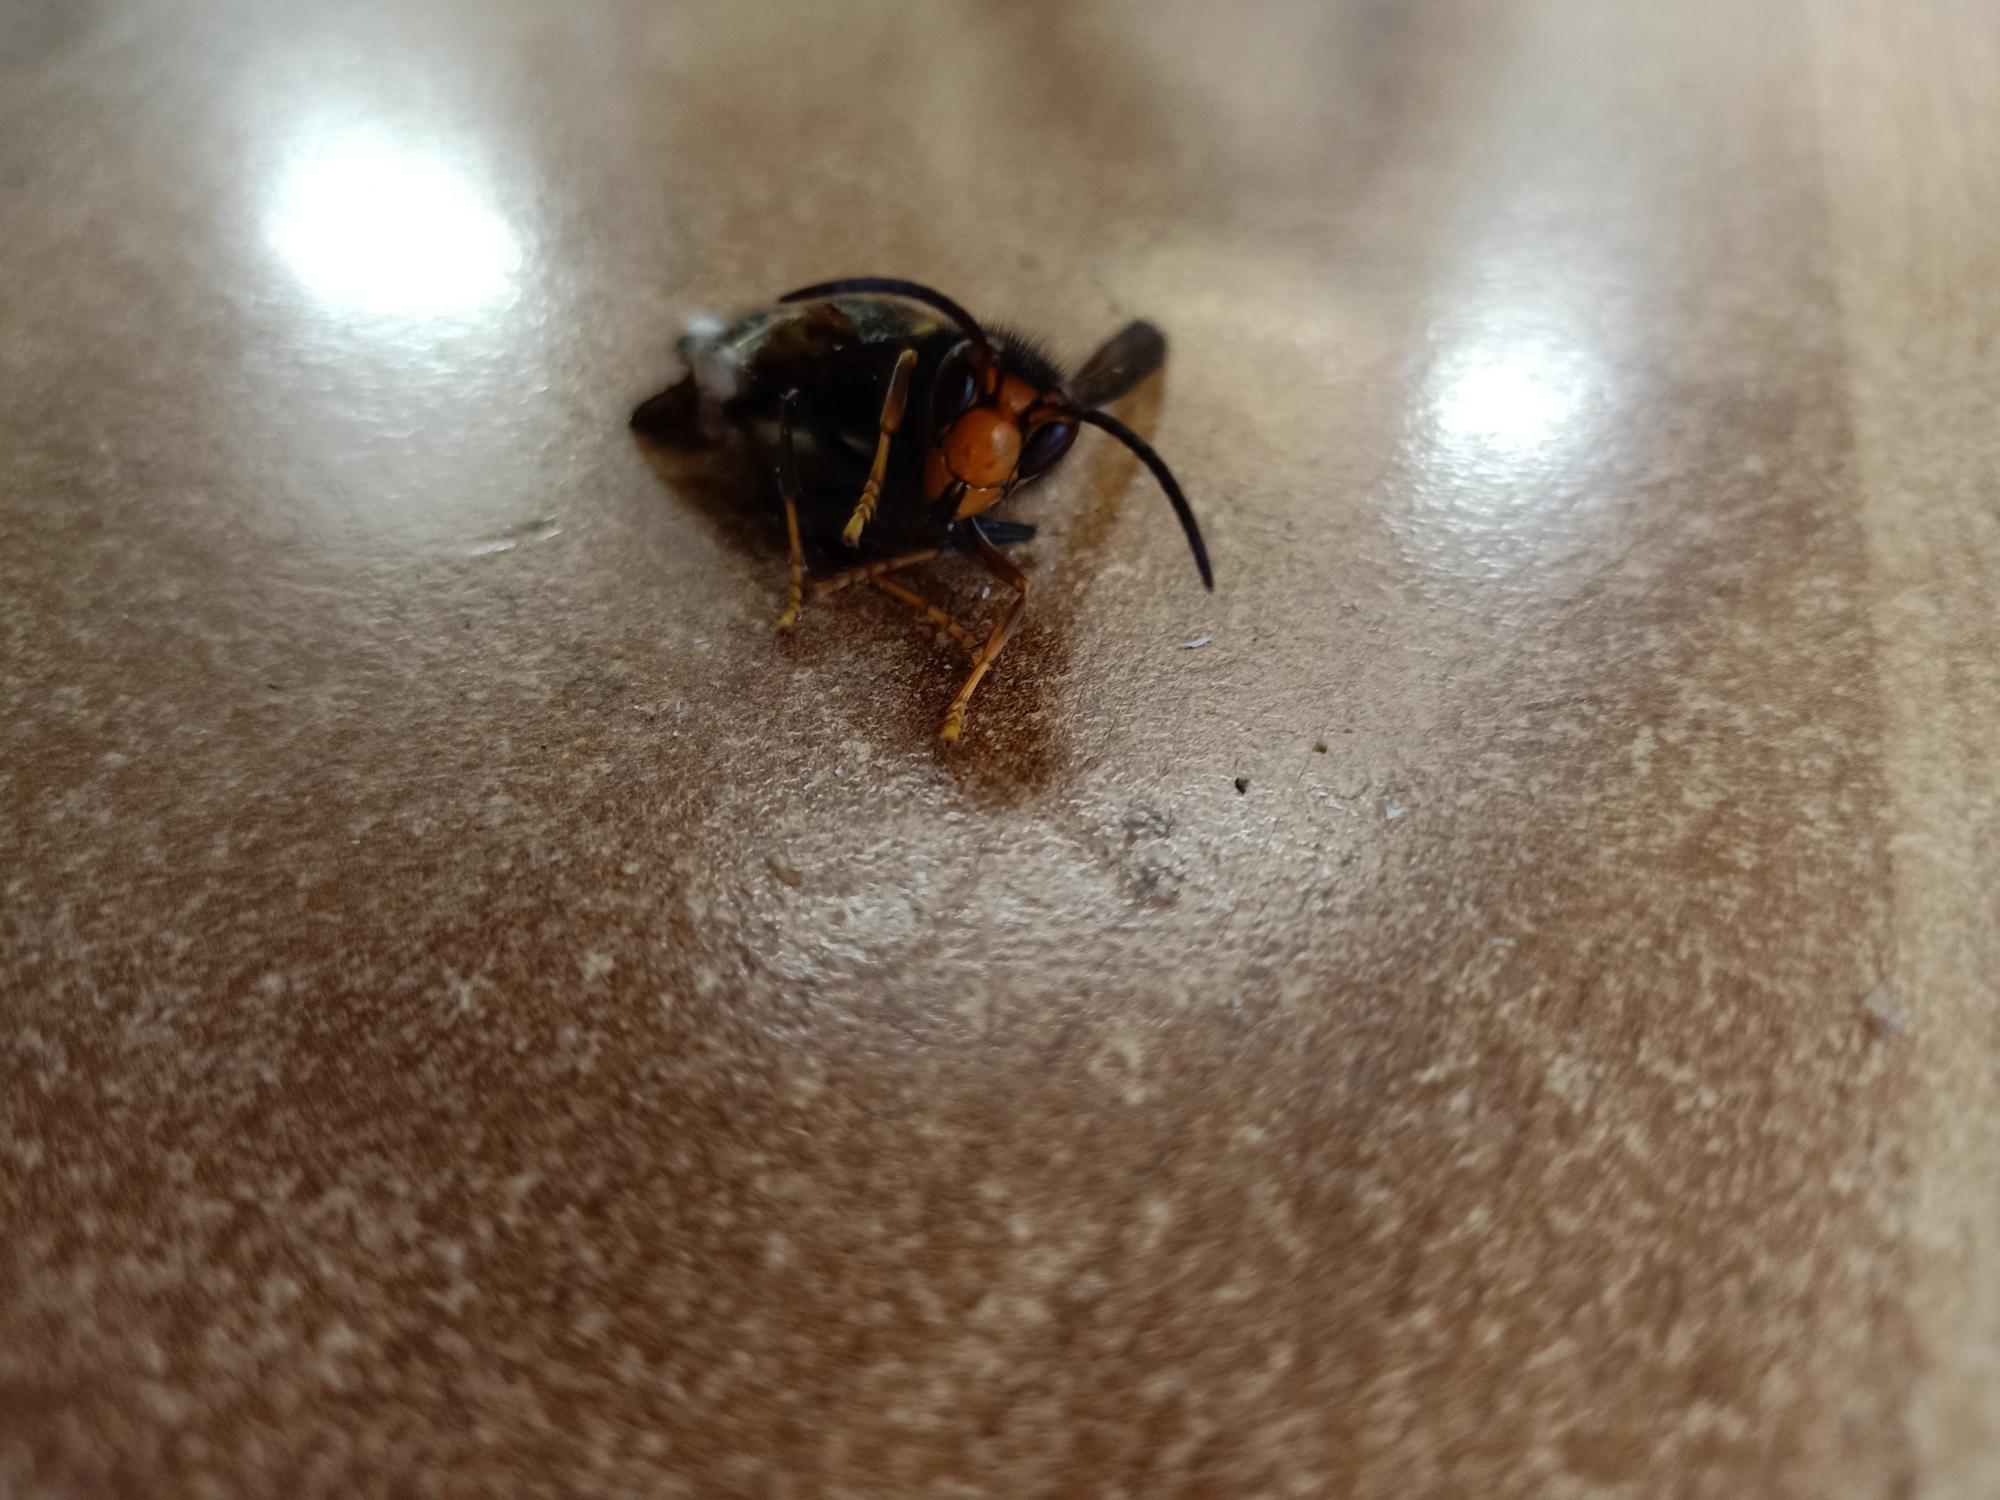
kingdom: Animalia
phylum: Arthropoda
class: Insecta
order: Hymenoptera
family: Vespidae
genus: Vespa
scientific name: Vespa velutina
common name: Asian hornet
